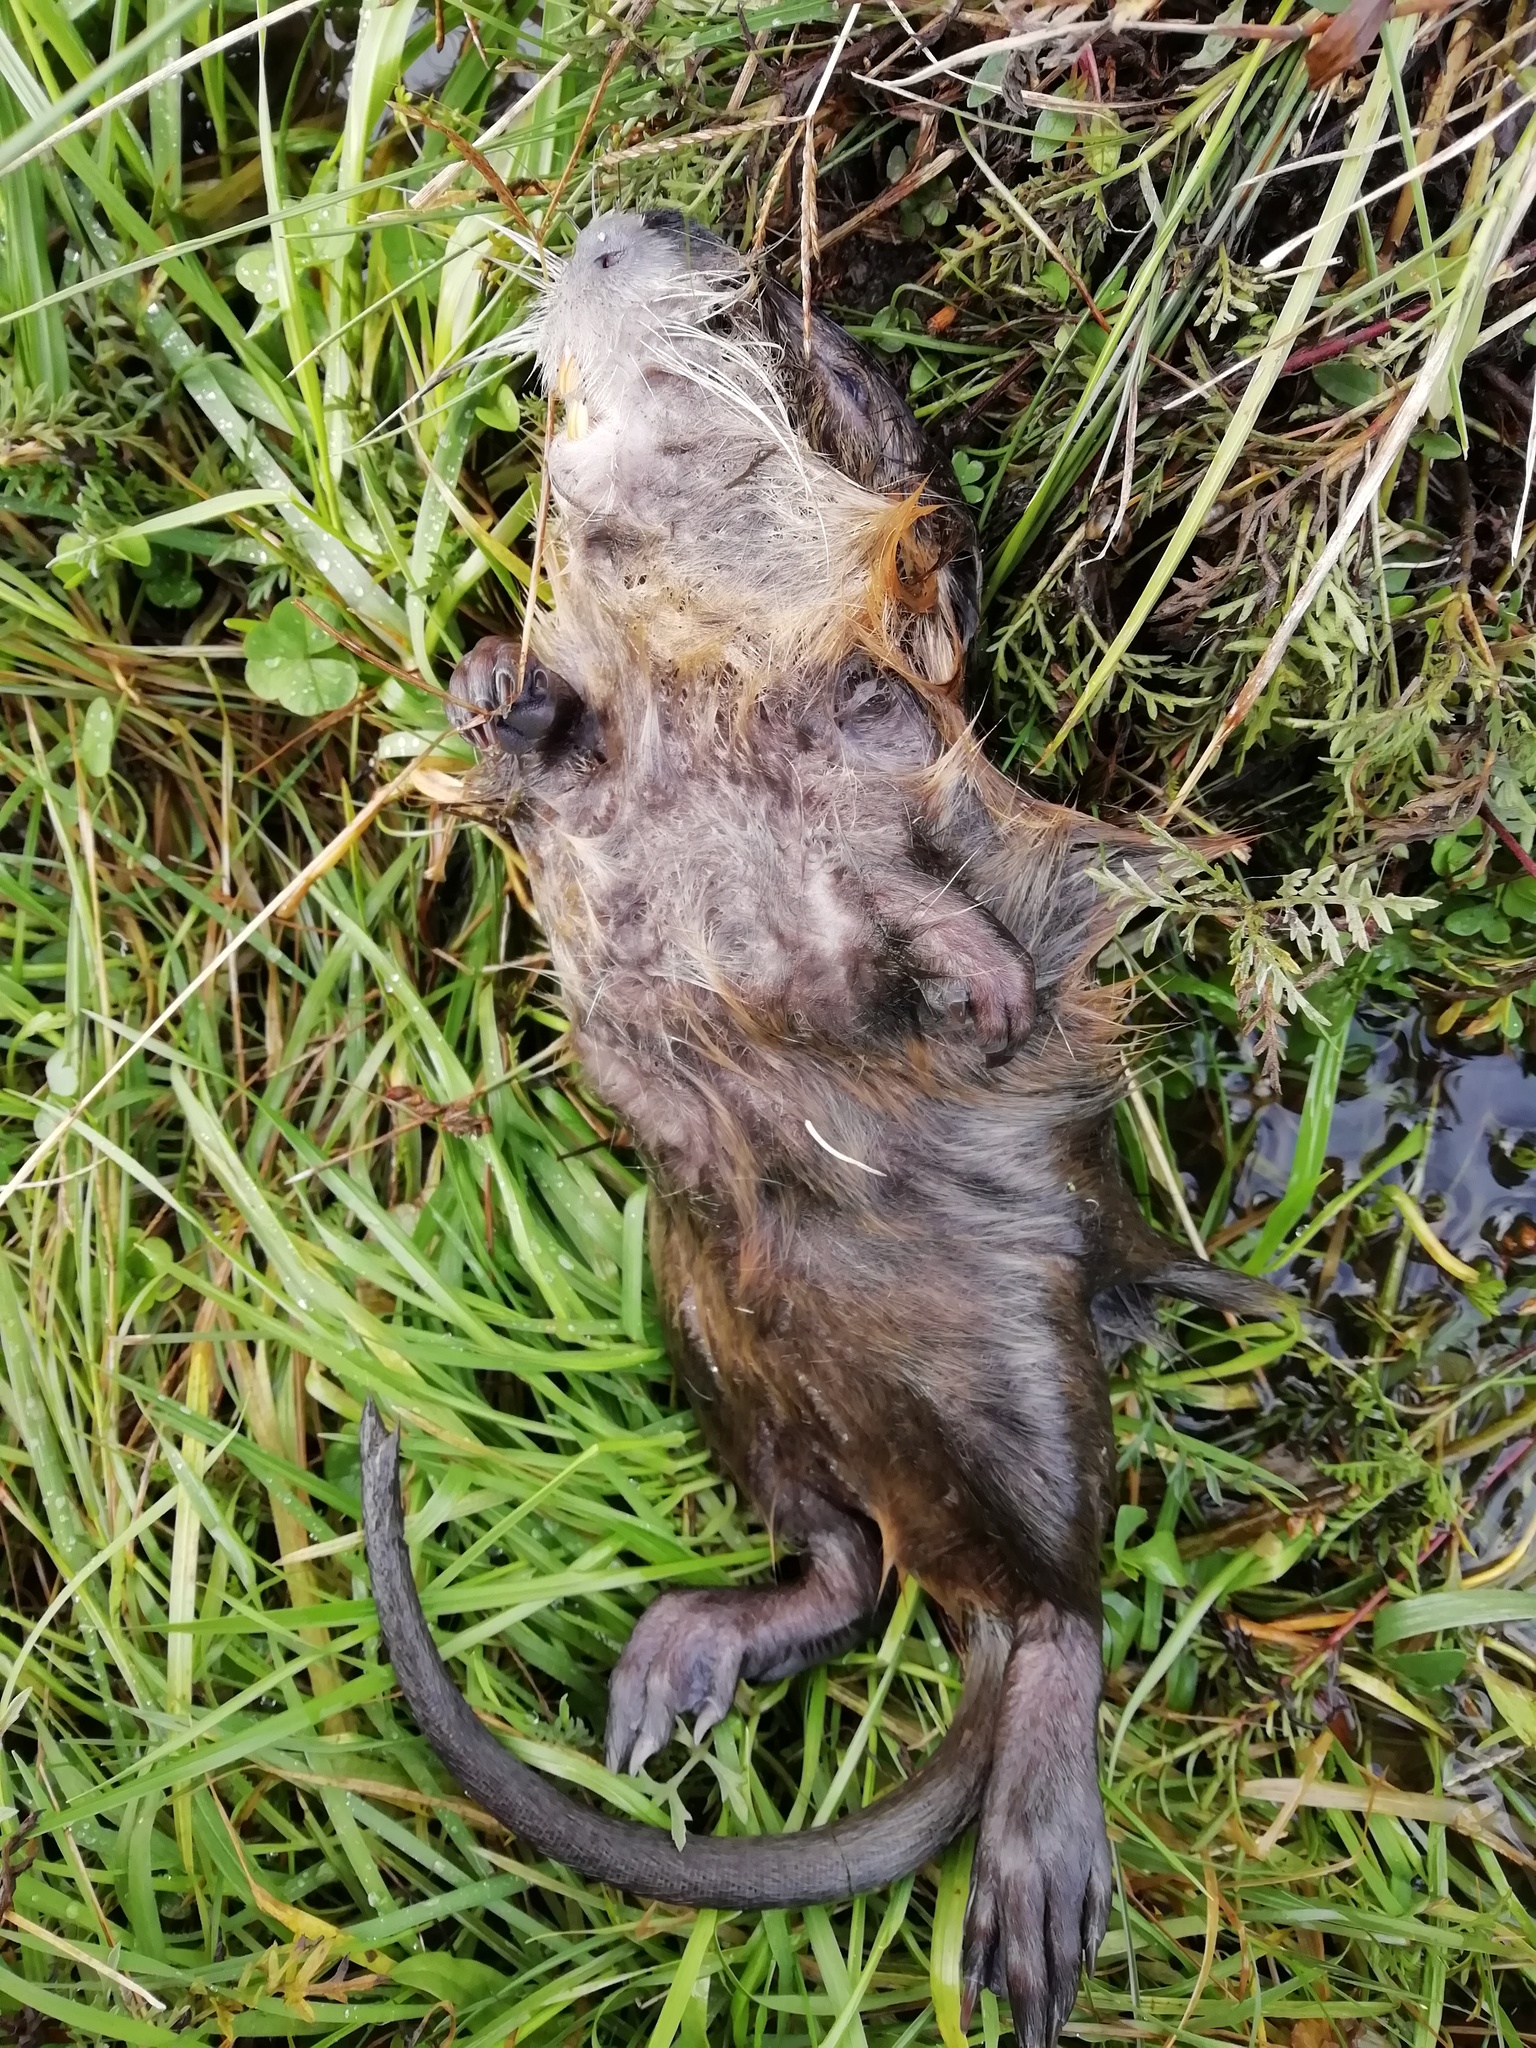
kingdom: Animalia
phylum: Chordata
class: Mammalia
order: Rodentia
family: Myocastoridae
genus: Myocastor
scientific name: Myocastor coypus
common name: Coypu
